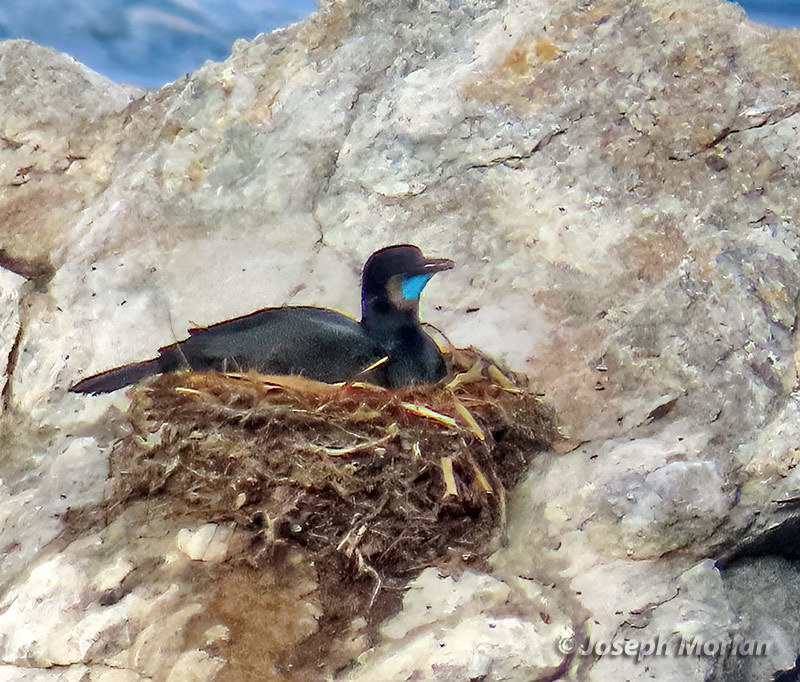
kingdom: Animalia
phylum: Chordata
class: Aves
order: Suliformes
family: Phalacrocoracidae
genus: Urile
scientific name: Urile penicillatus
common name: Brandt's cormorant
